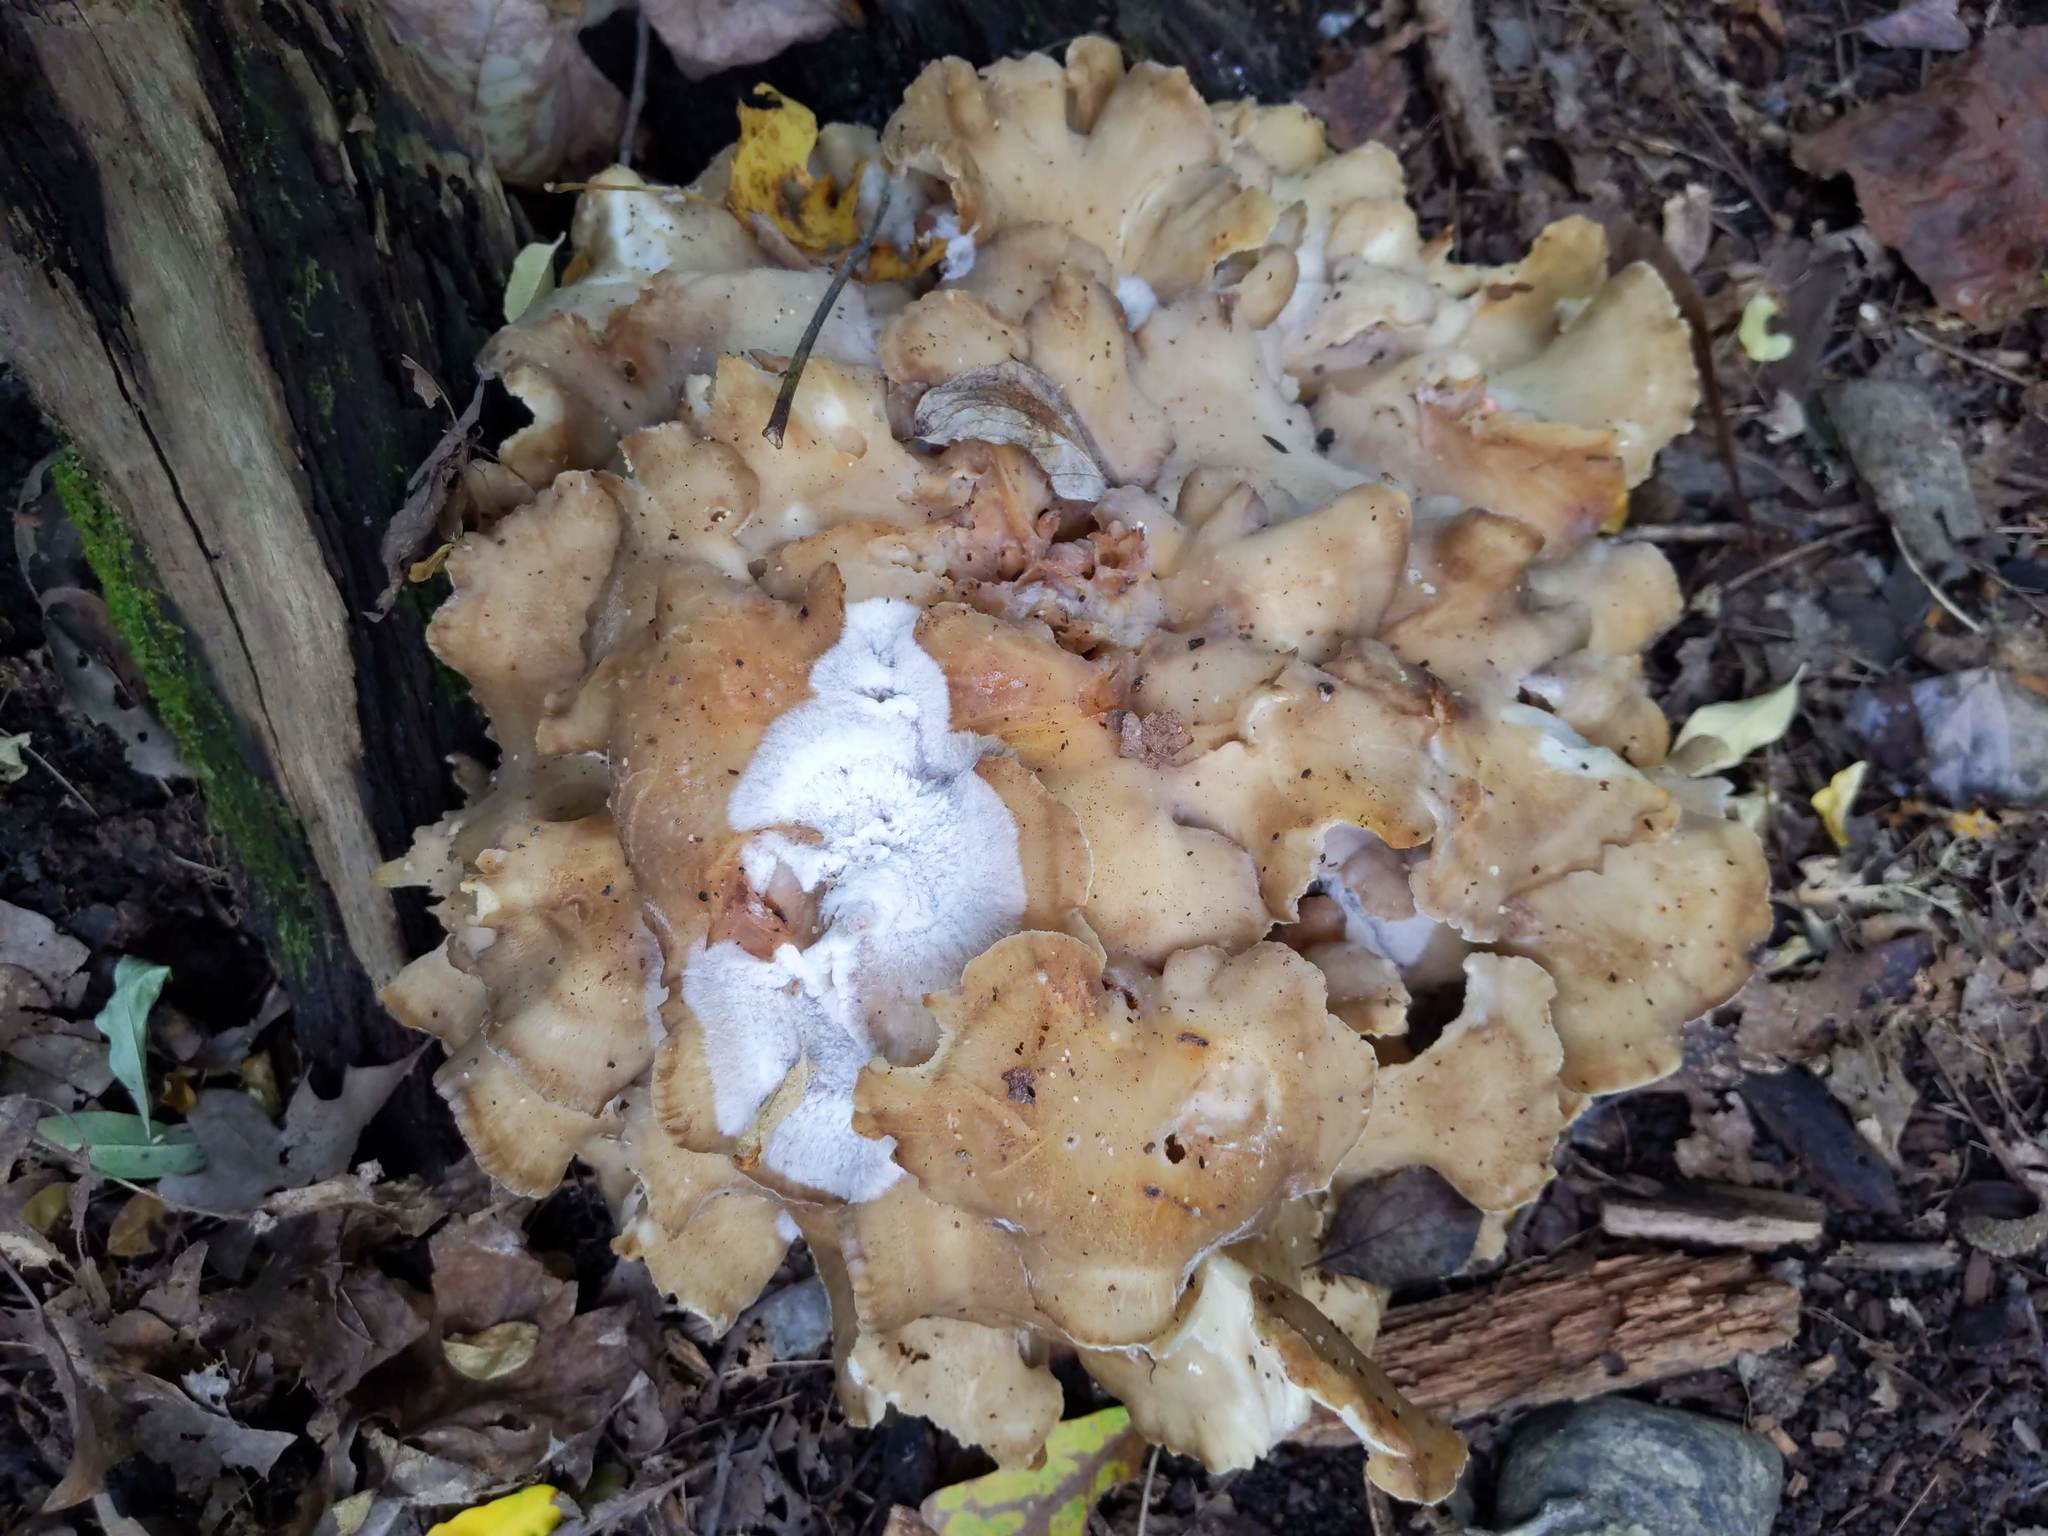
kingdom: Fungi
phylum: Basidiomycota
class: Agaricomycetes
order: Polyporales
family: Grifolaceae
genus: Grifola
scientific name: Grifola frondosa
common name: Hen of the woods
